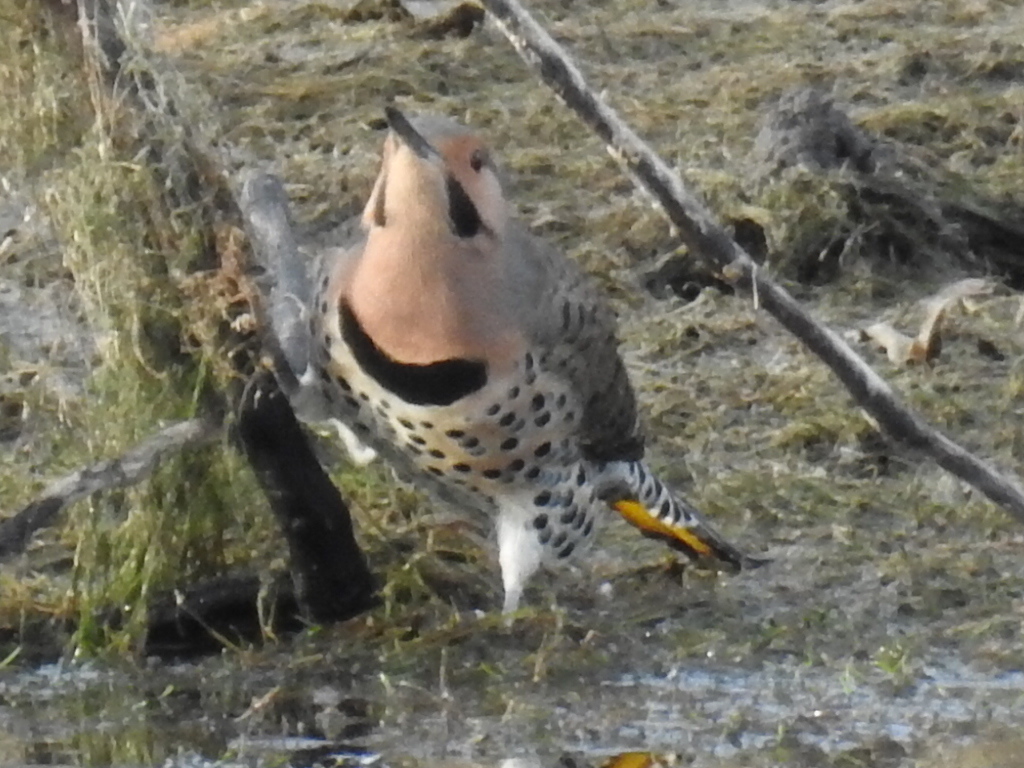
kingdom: Animalia
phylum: Chordata
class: Aves
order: Piciformes
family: Picidae
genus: Colaptes
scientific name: Colaptes auratus
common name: Northern flicker
